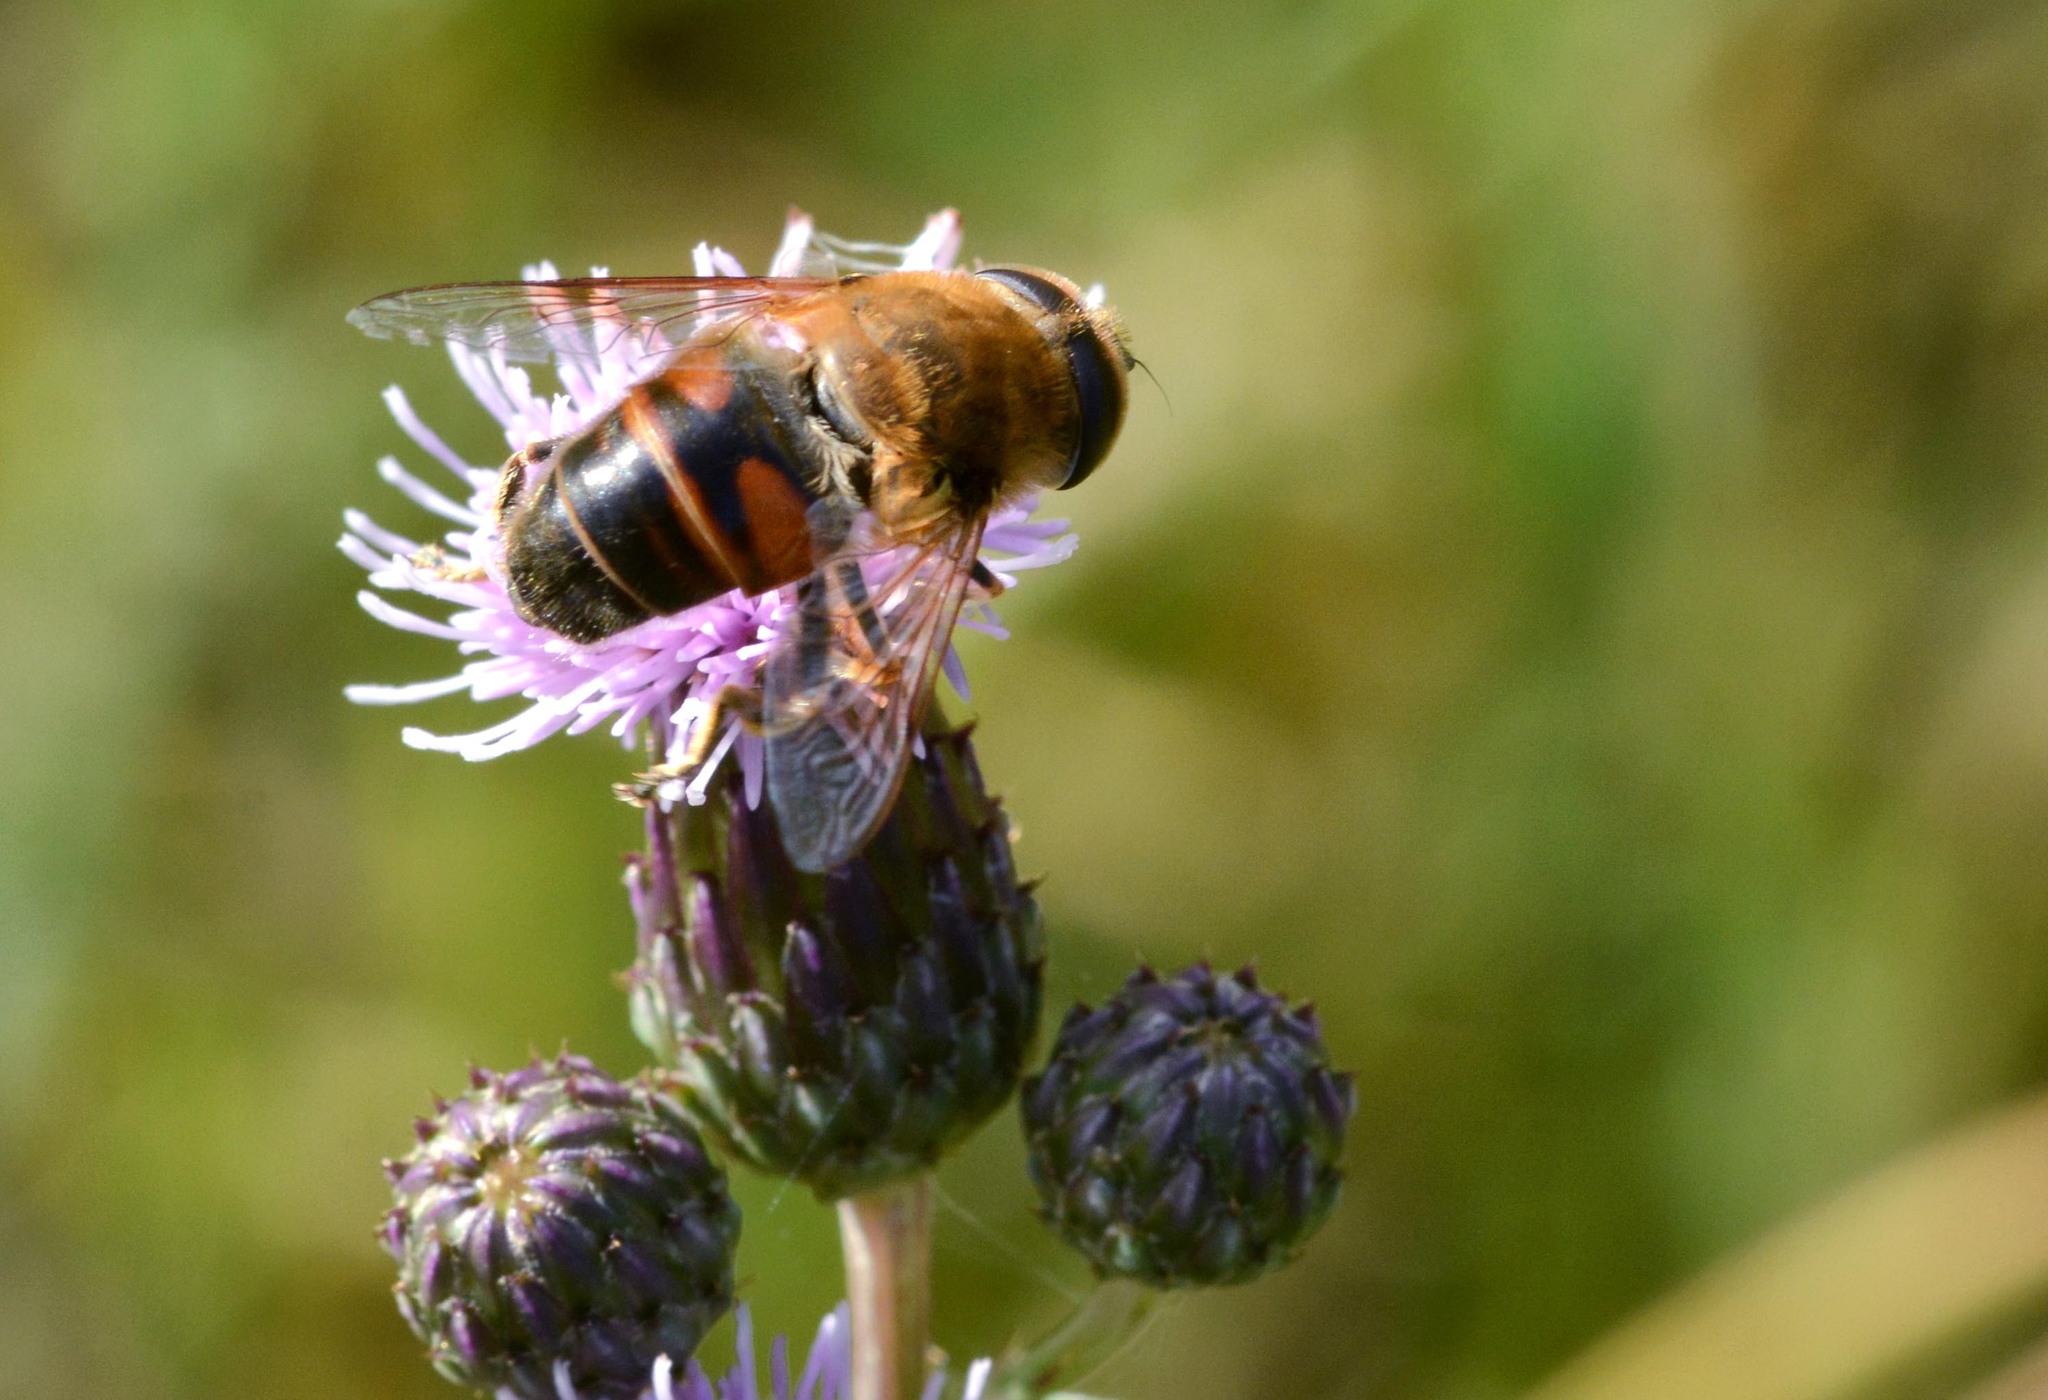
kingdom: Animalia
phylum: Arthropoda
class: Insecta
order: Diptera
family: Syrphidae
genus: Eristalis
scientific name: Eristalis tenax
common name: Drone fly
